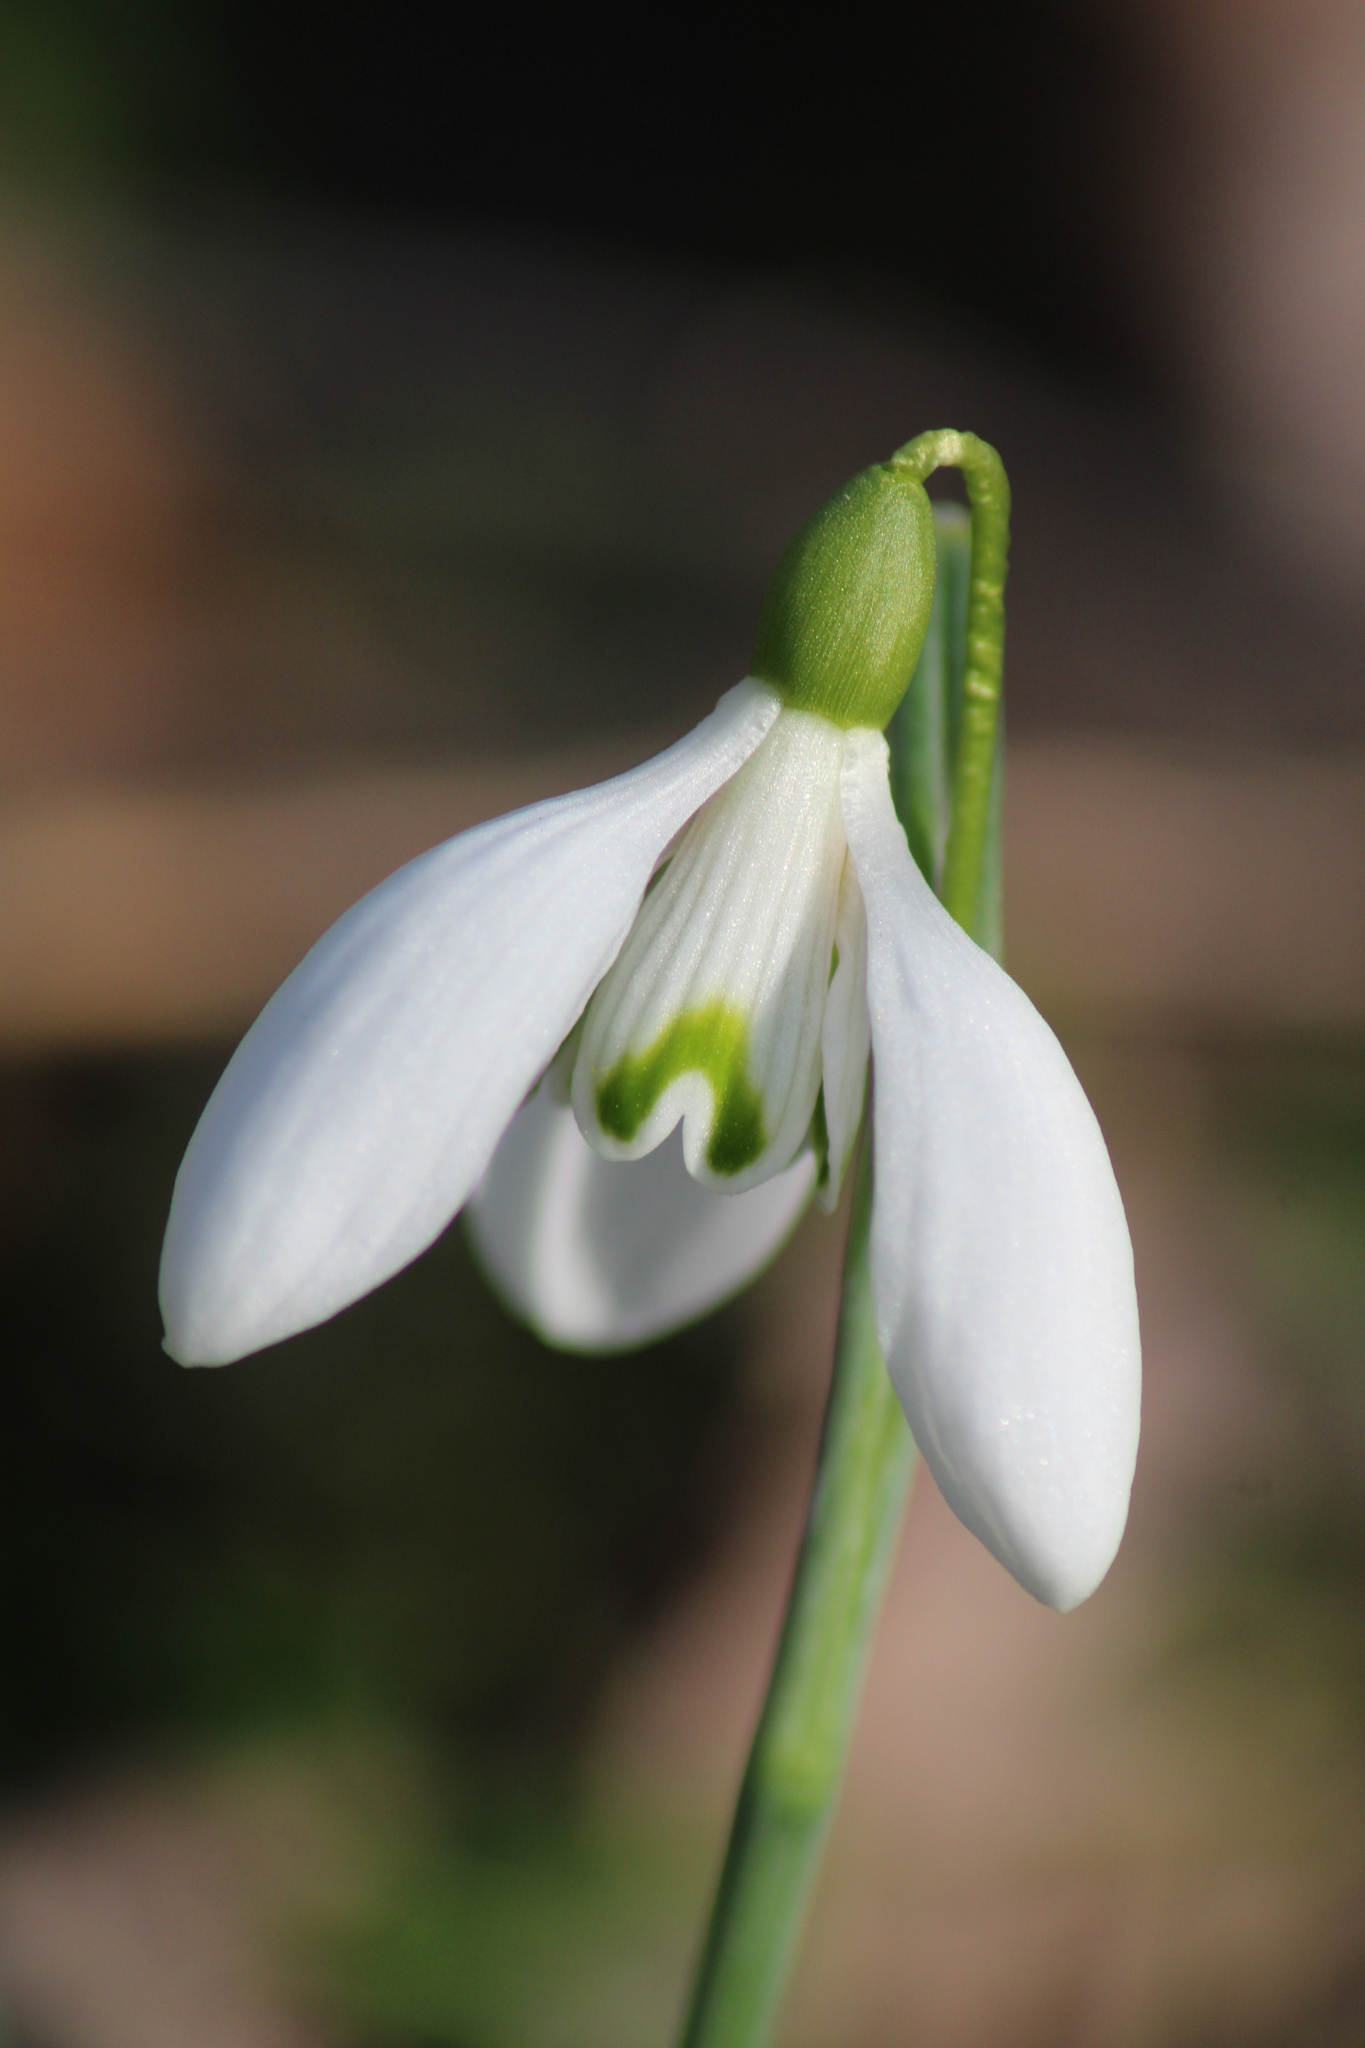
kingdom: Plantae
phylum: Tracheophyta
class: Liliopsida
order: Asparagales
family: Amaryllidaceae
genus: Galanthus
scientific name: Galanthus nivalis
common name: Snowdrop
